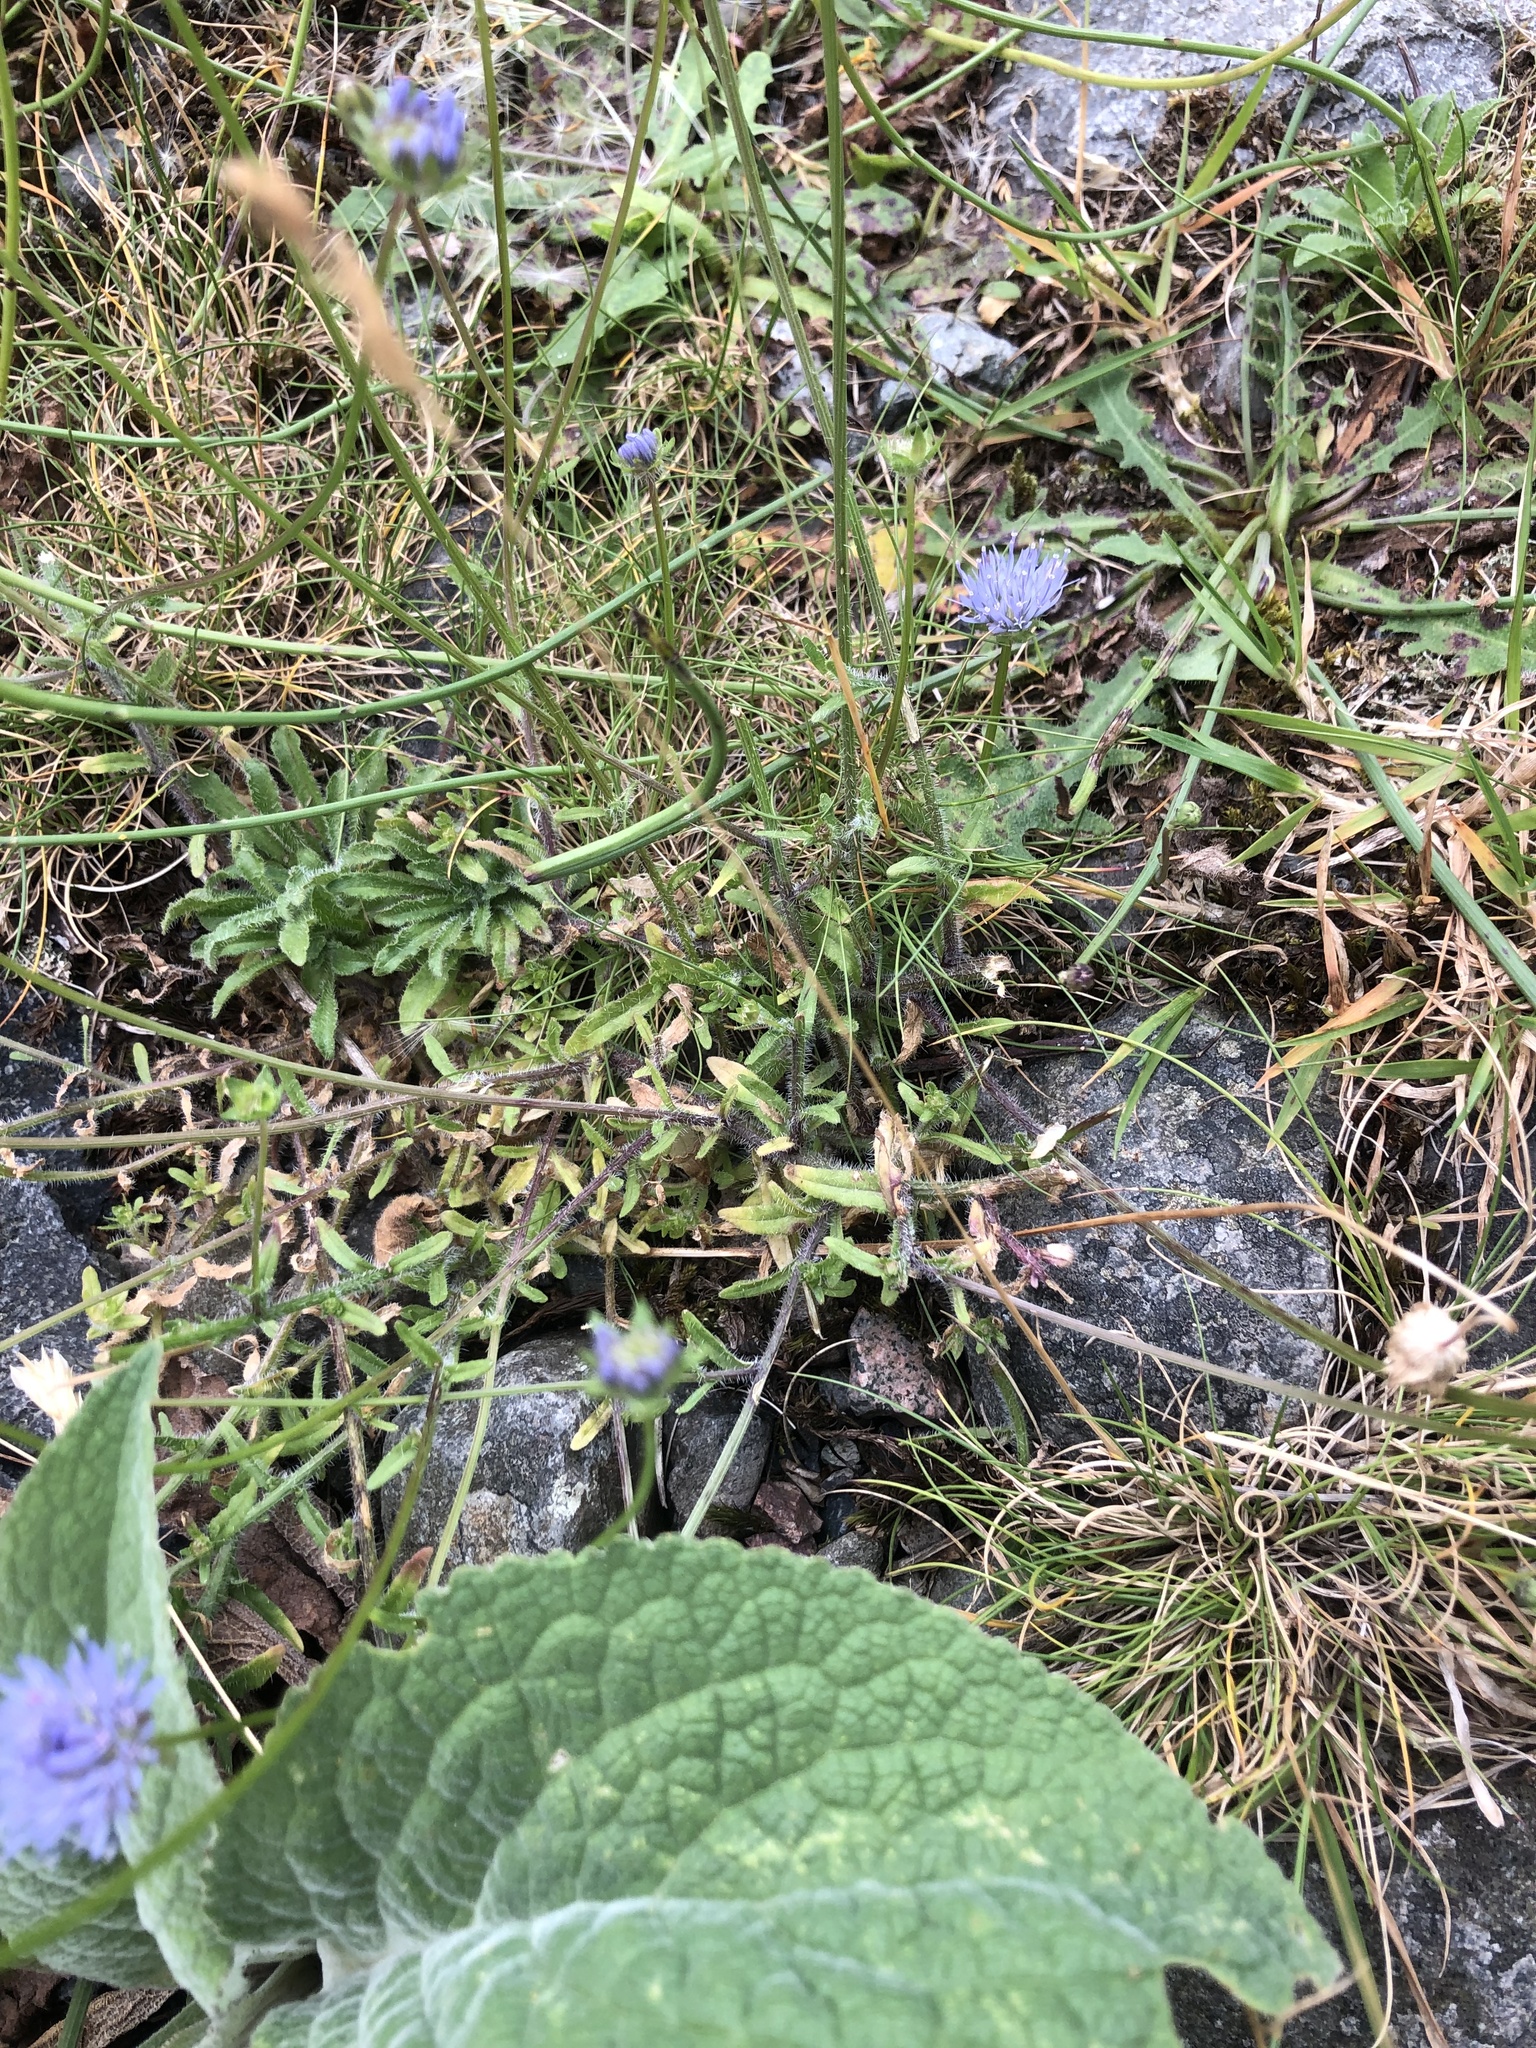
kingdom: Plantae
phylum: Tracheophyta
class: Magnoliopsida
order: Asterales
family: Campanulaceae
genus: Jasione
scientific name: Jasione montana
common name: Sheep's-bit
